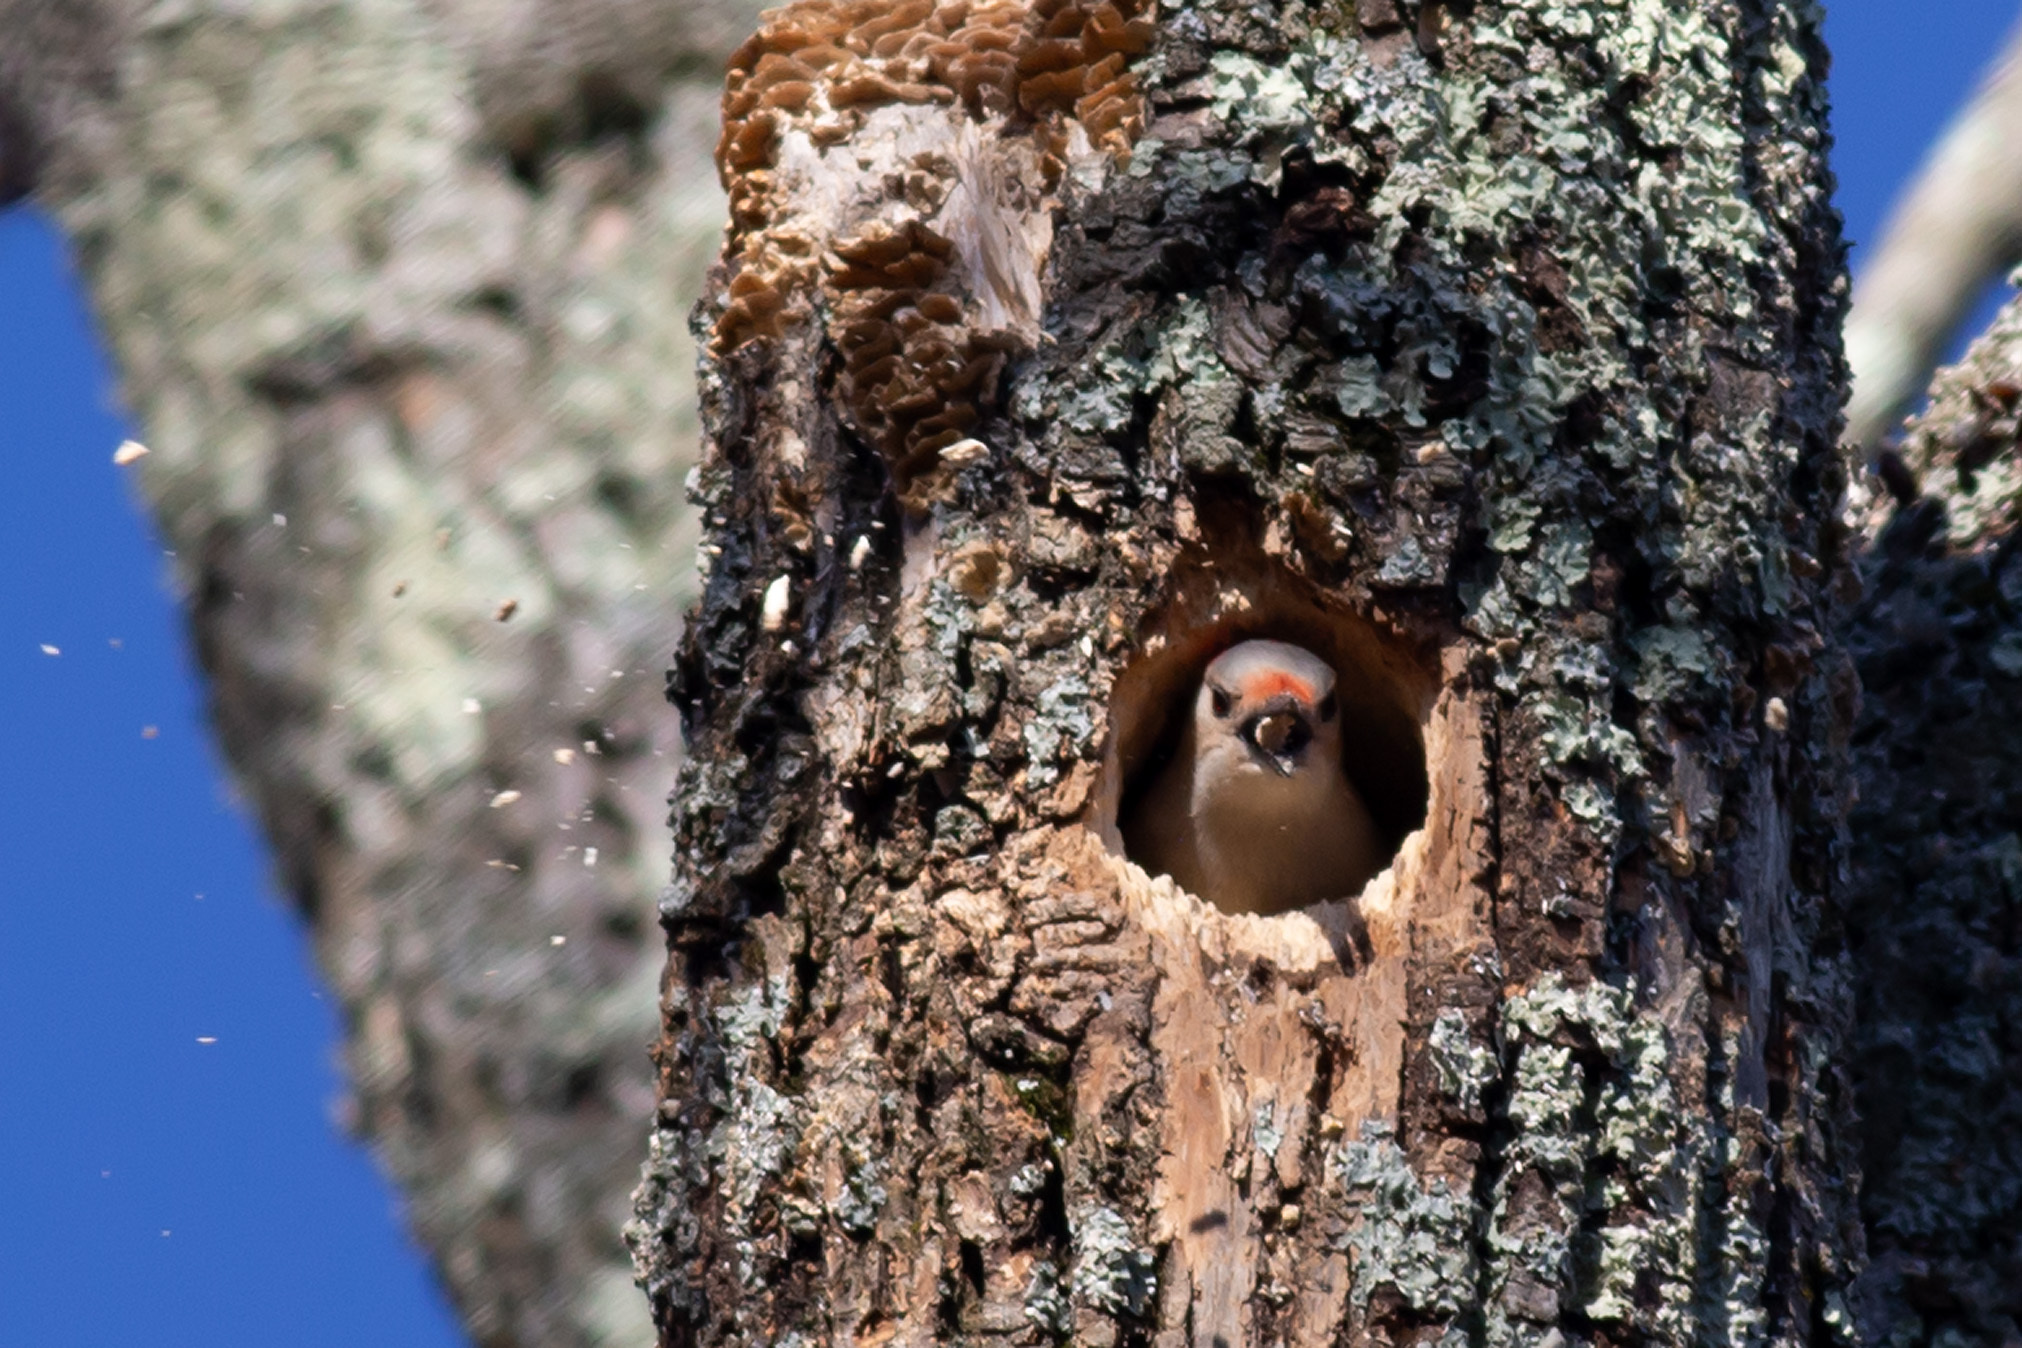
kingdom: Animalia
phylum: Chordata
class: Aves
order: Piciformes
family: Picidae
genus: Melanerpes
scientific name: Melanerpes carolinus
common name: Red-bellied woodpecker
